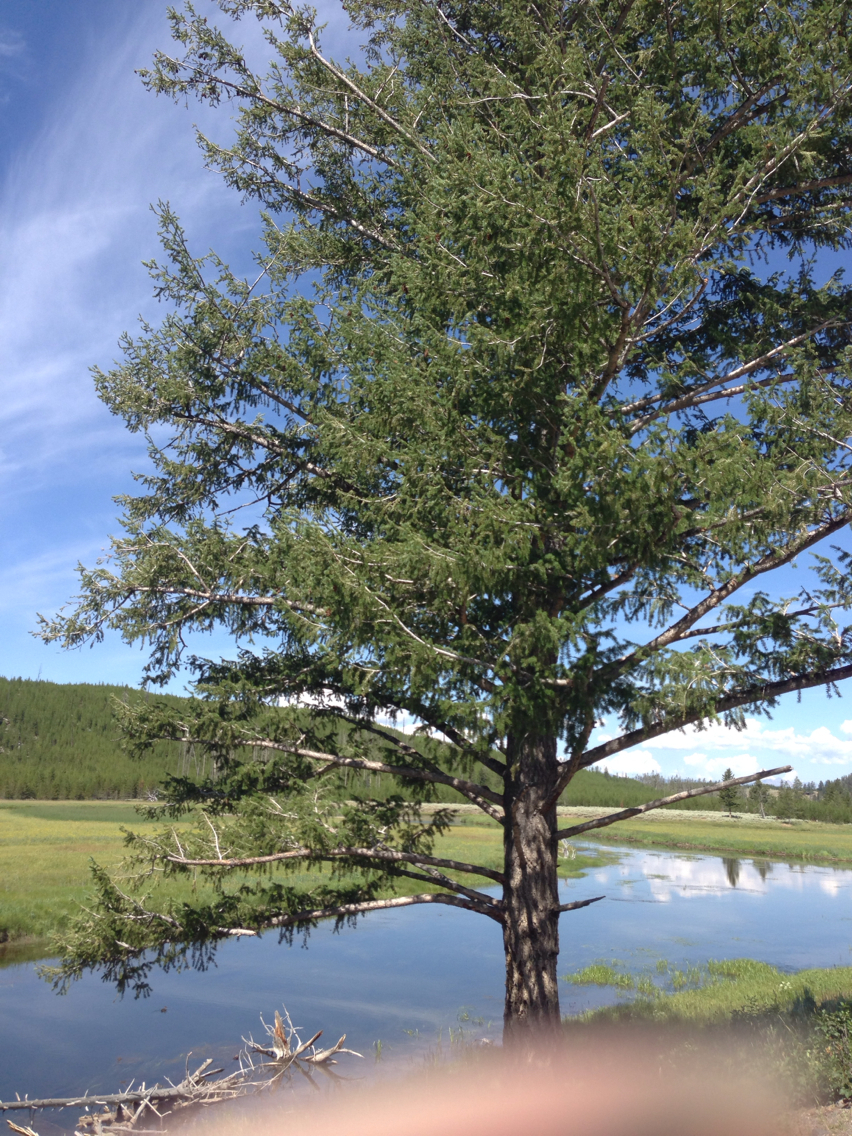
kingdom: Plantae
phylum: Tracheophyta
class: Pinopsida
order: Pinales
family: Pinaceae
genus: Pseudotsuga
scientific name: Pseudotsuga menziesii
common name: Douglas fir
